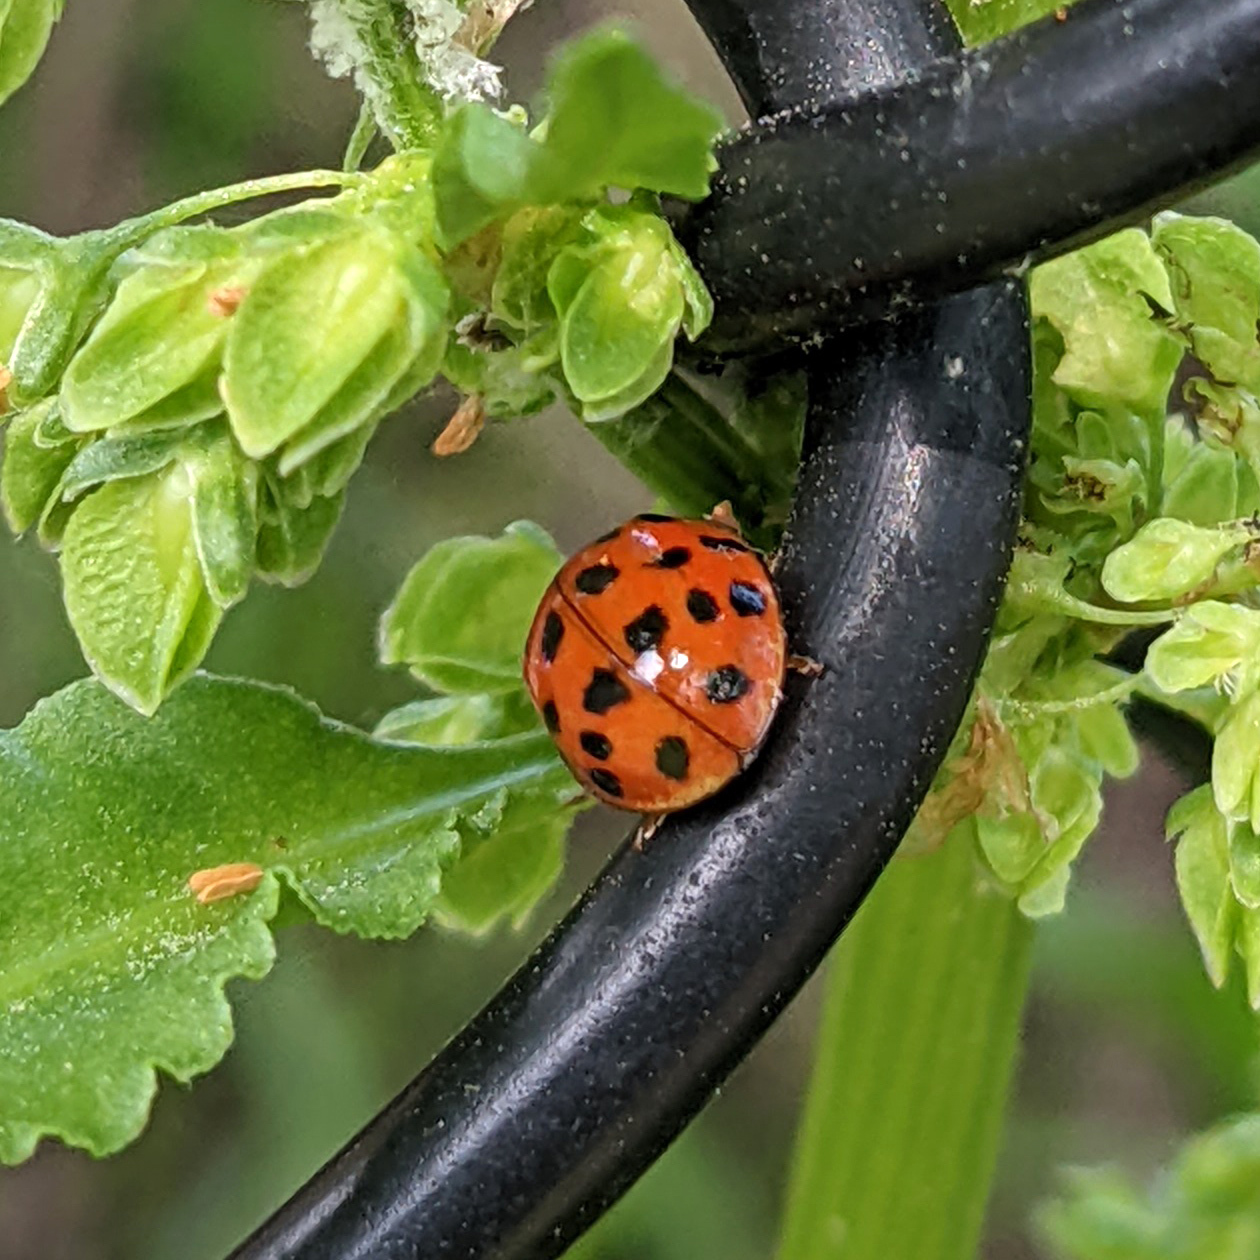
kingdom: Animalia
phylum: Arthropoda
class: Insecta
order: Coleoptera
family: Coccinellidae
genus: Harmonia
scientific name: Harmonia axyridis
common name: Harlequin ladybird
